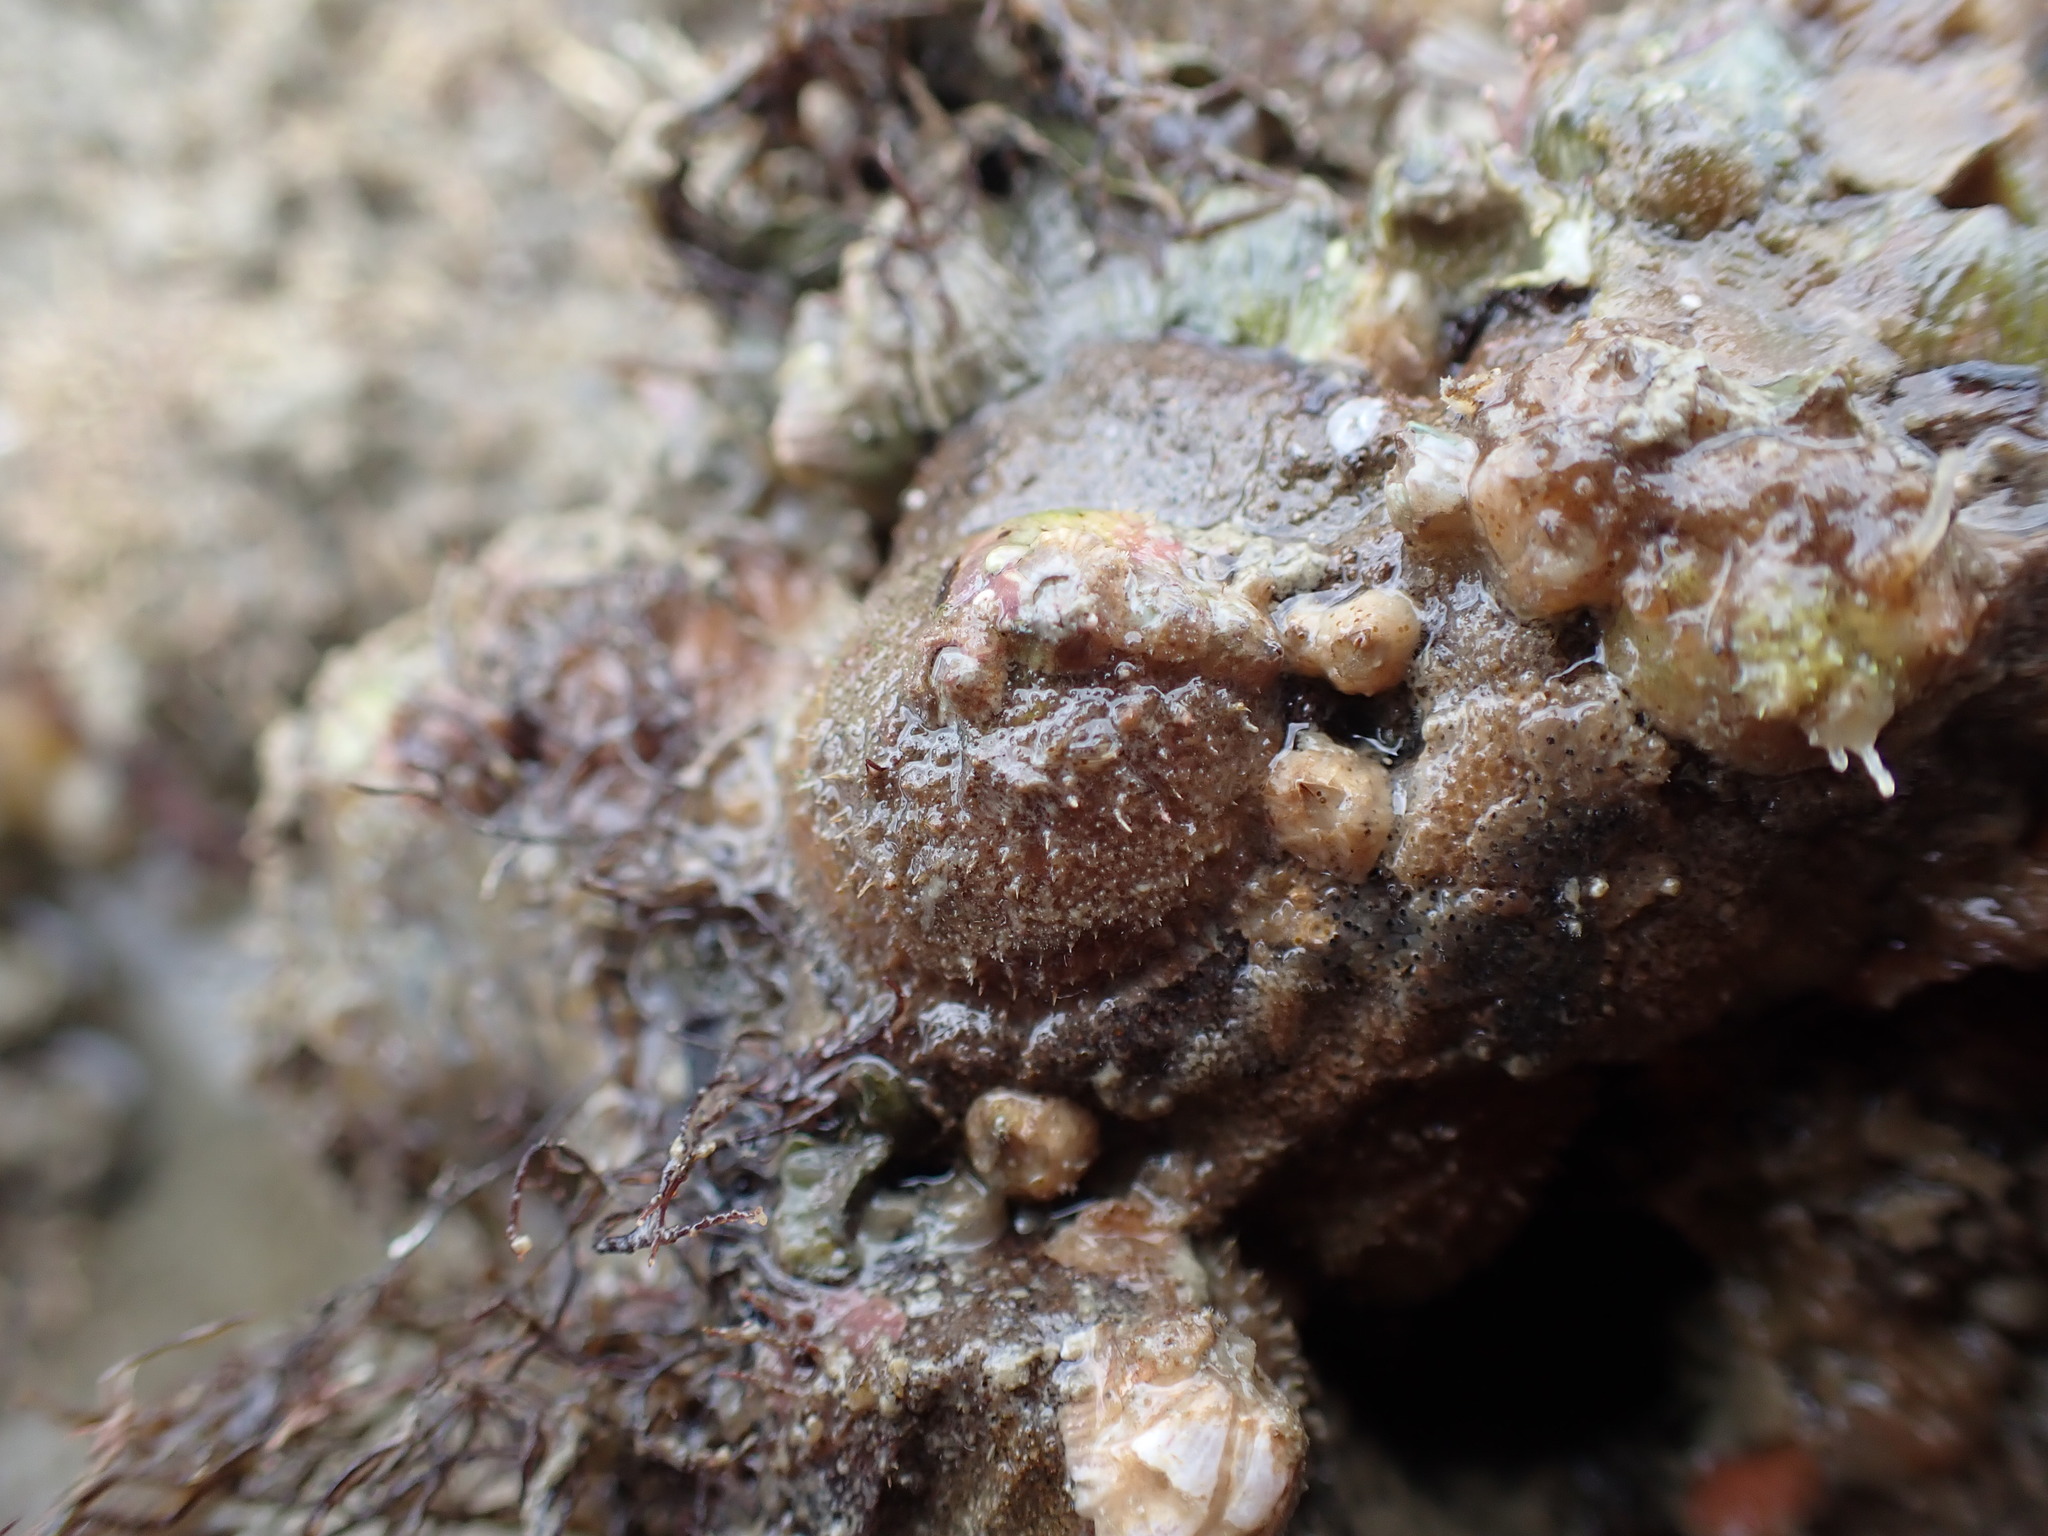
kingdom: Animalia
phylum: Mollusca
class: Gastropoda
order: Littorinimorpha
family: Calyptraeidae
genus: Sigapatella
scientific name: Sigapatella novaezelandiae
